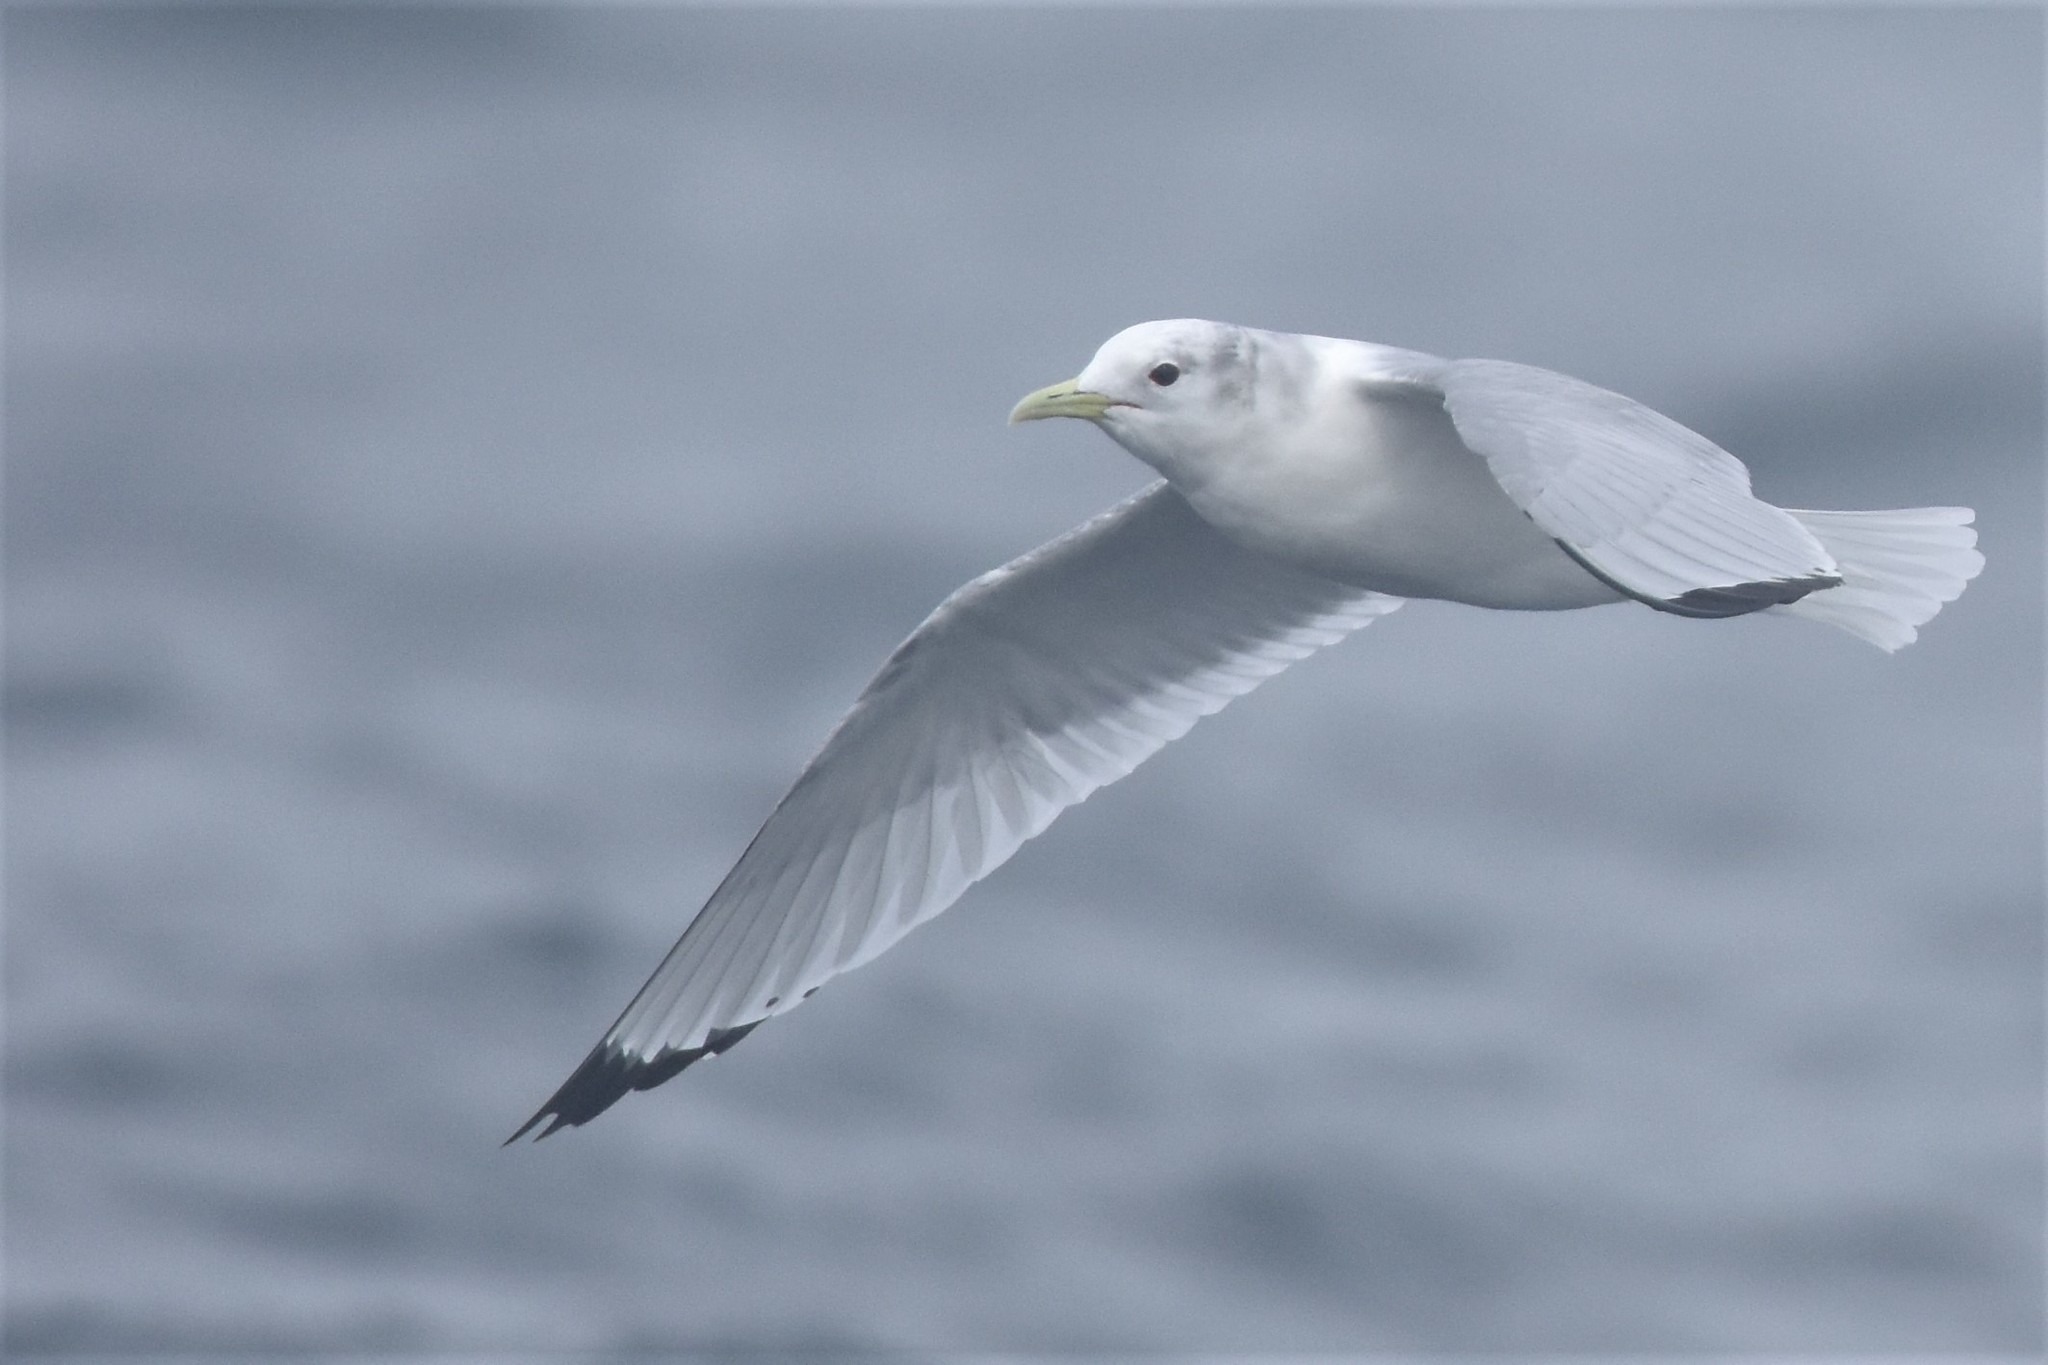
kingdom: Animalia
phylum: Chordata
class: Aves
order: Charadriiformes
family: Laridae
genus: Rissa
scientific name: Rissa tridactyla
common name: Black-legged kittiwake
